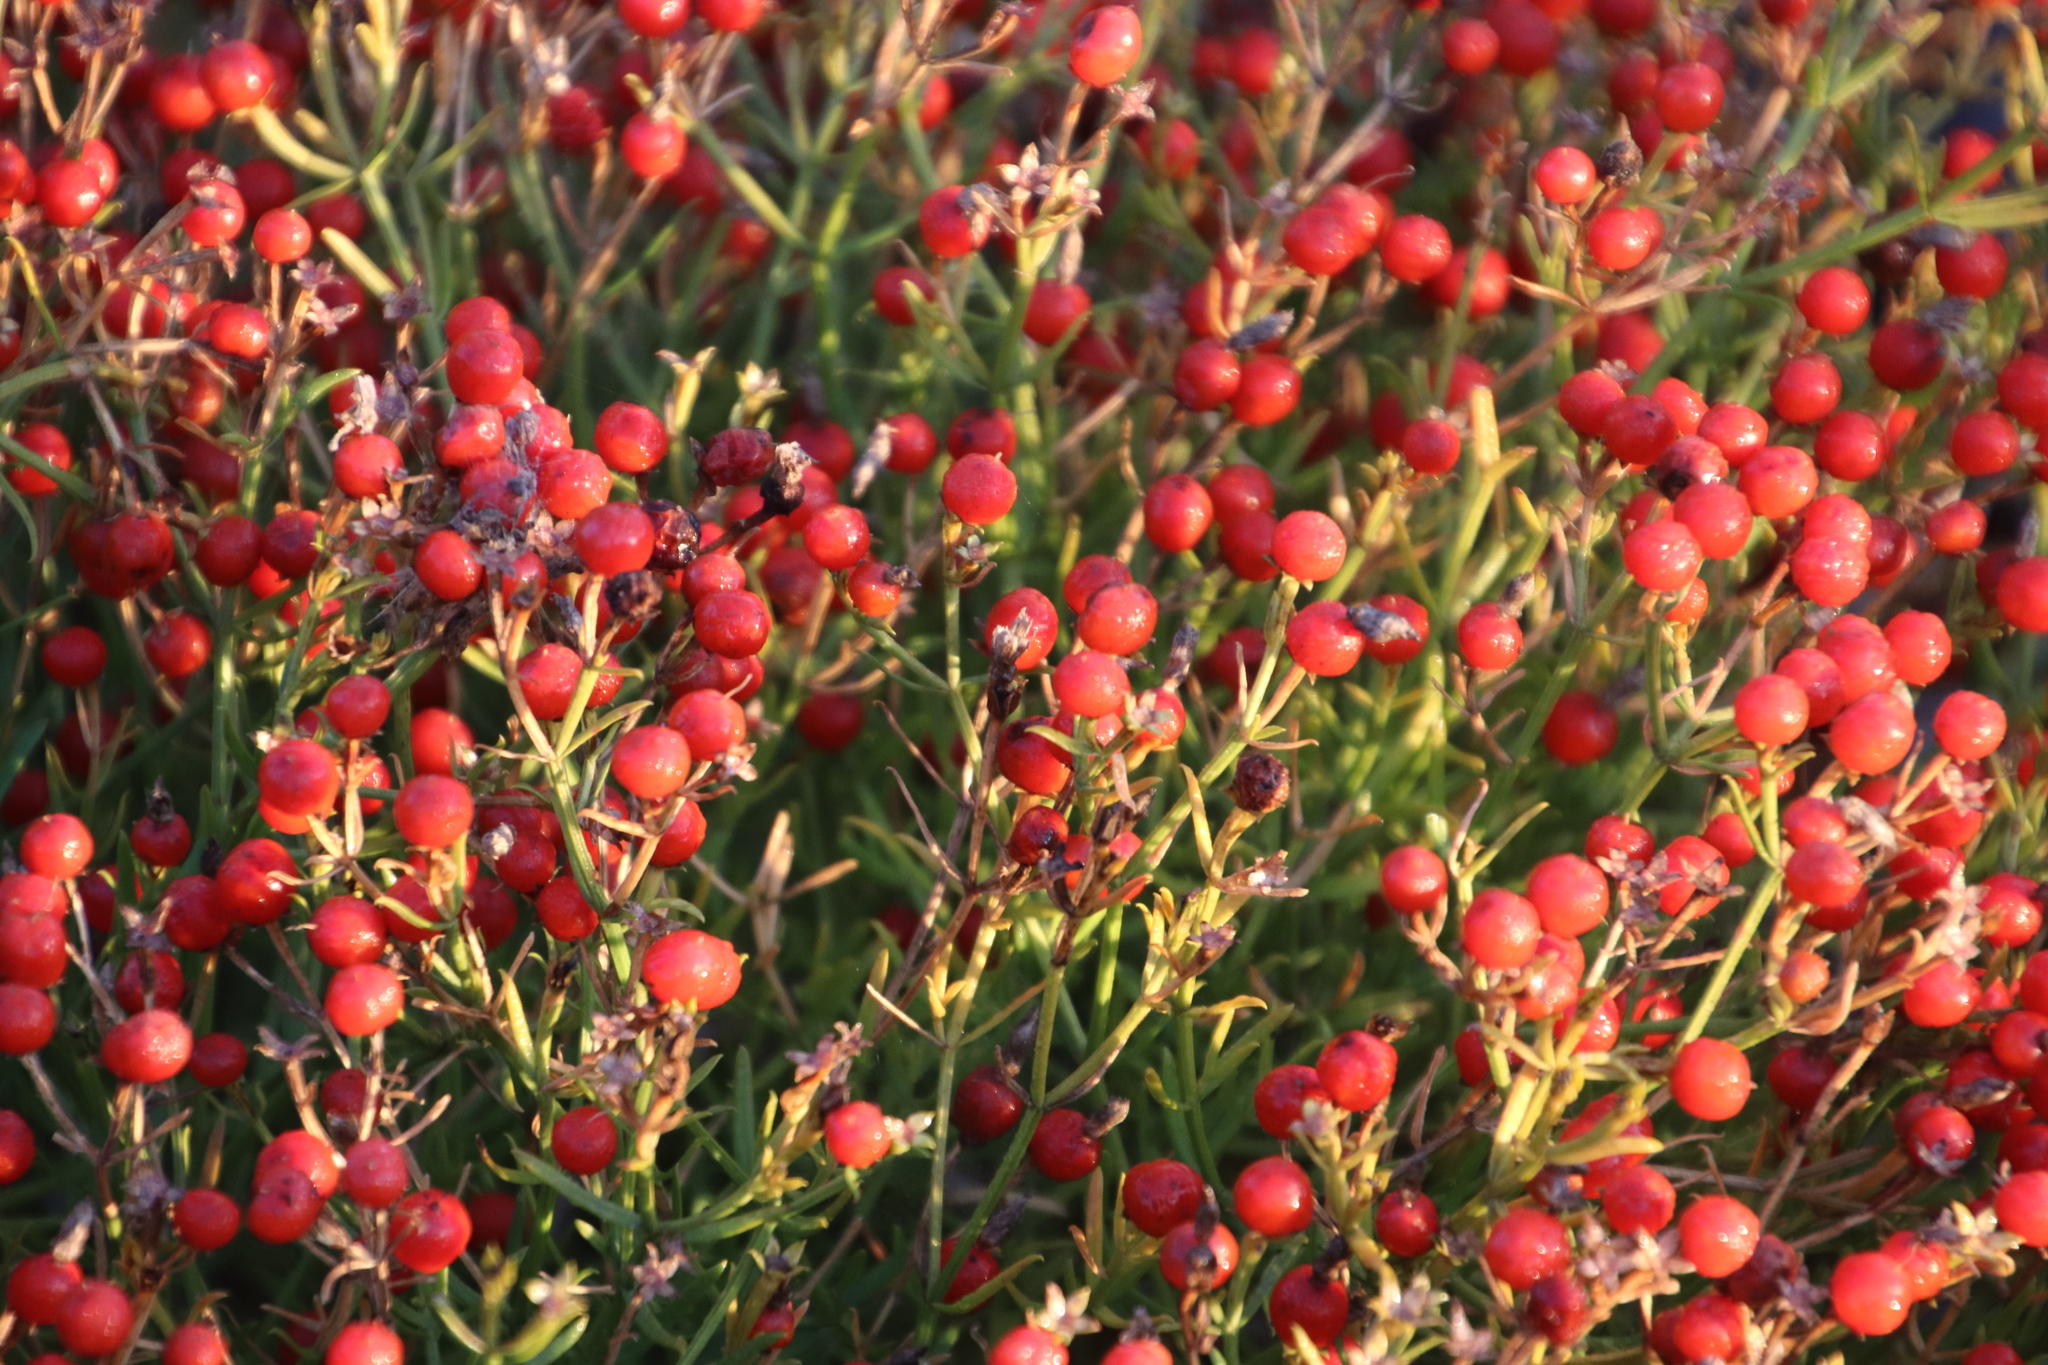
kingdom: Plantae
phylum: Tracheophyta
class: Magnoliopsida
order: Gentianales
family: Gentianaceae
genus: Chironia
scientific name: Chironia baccifera
